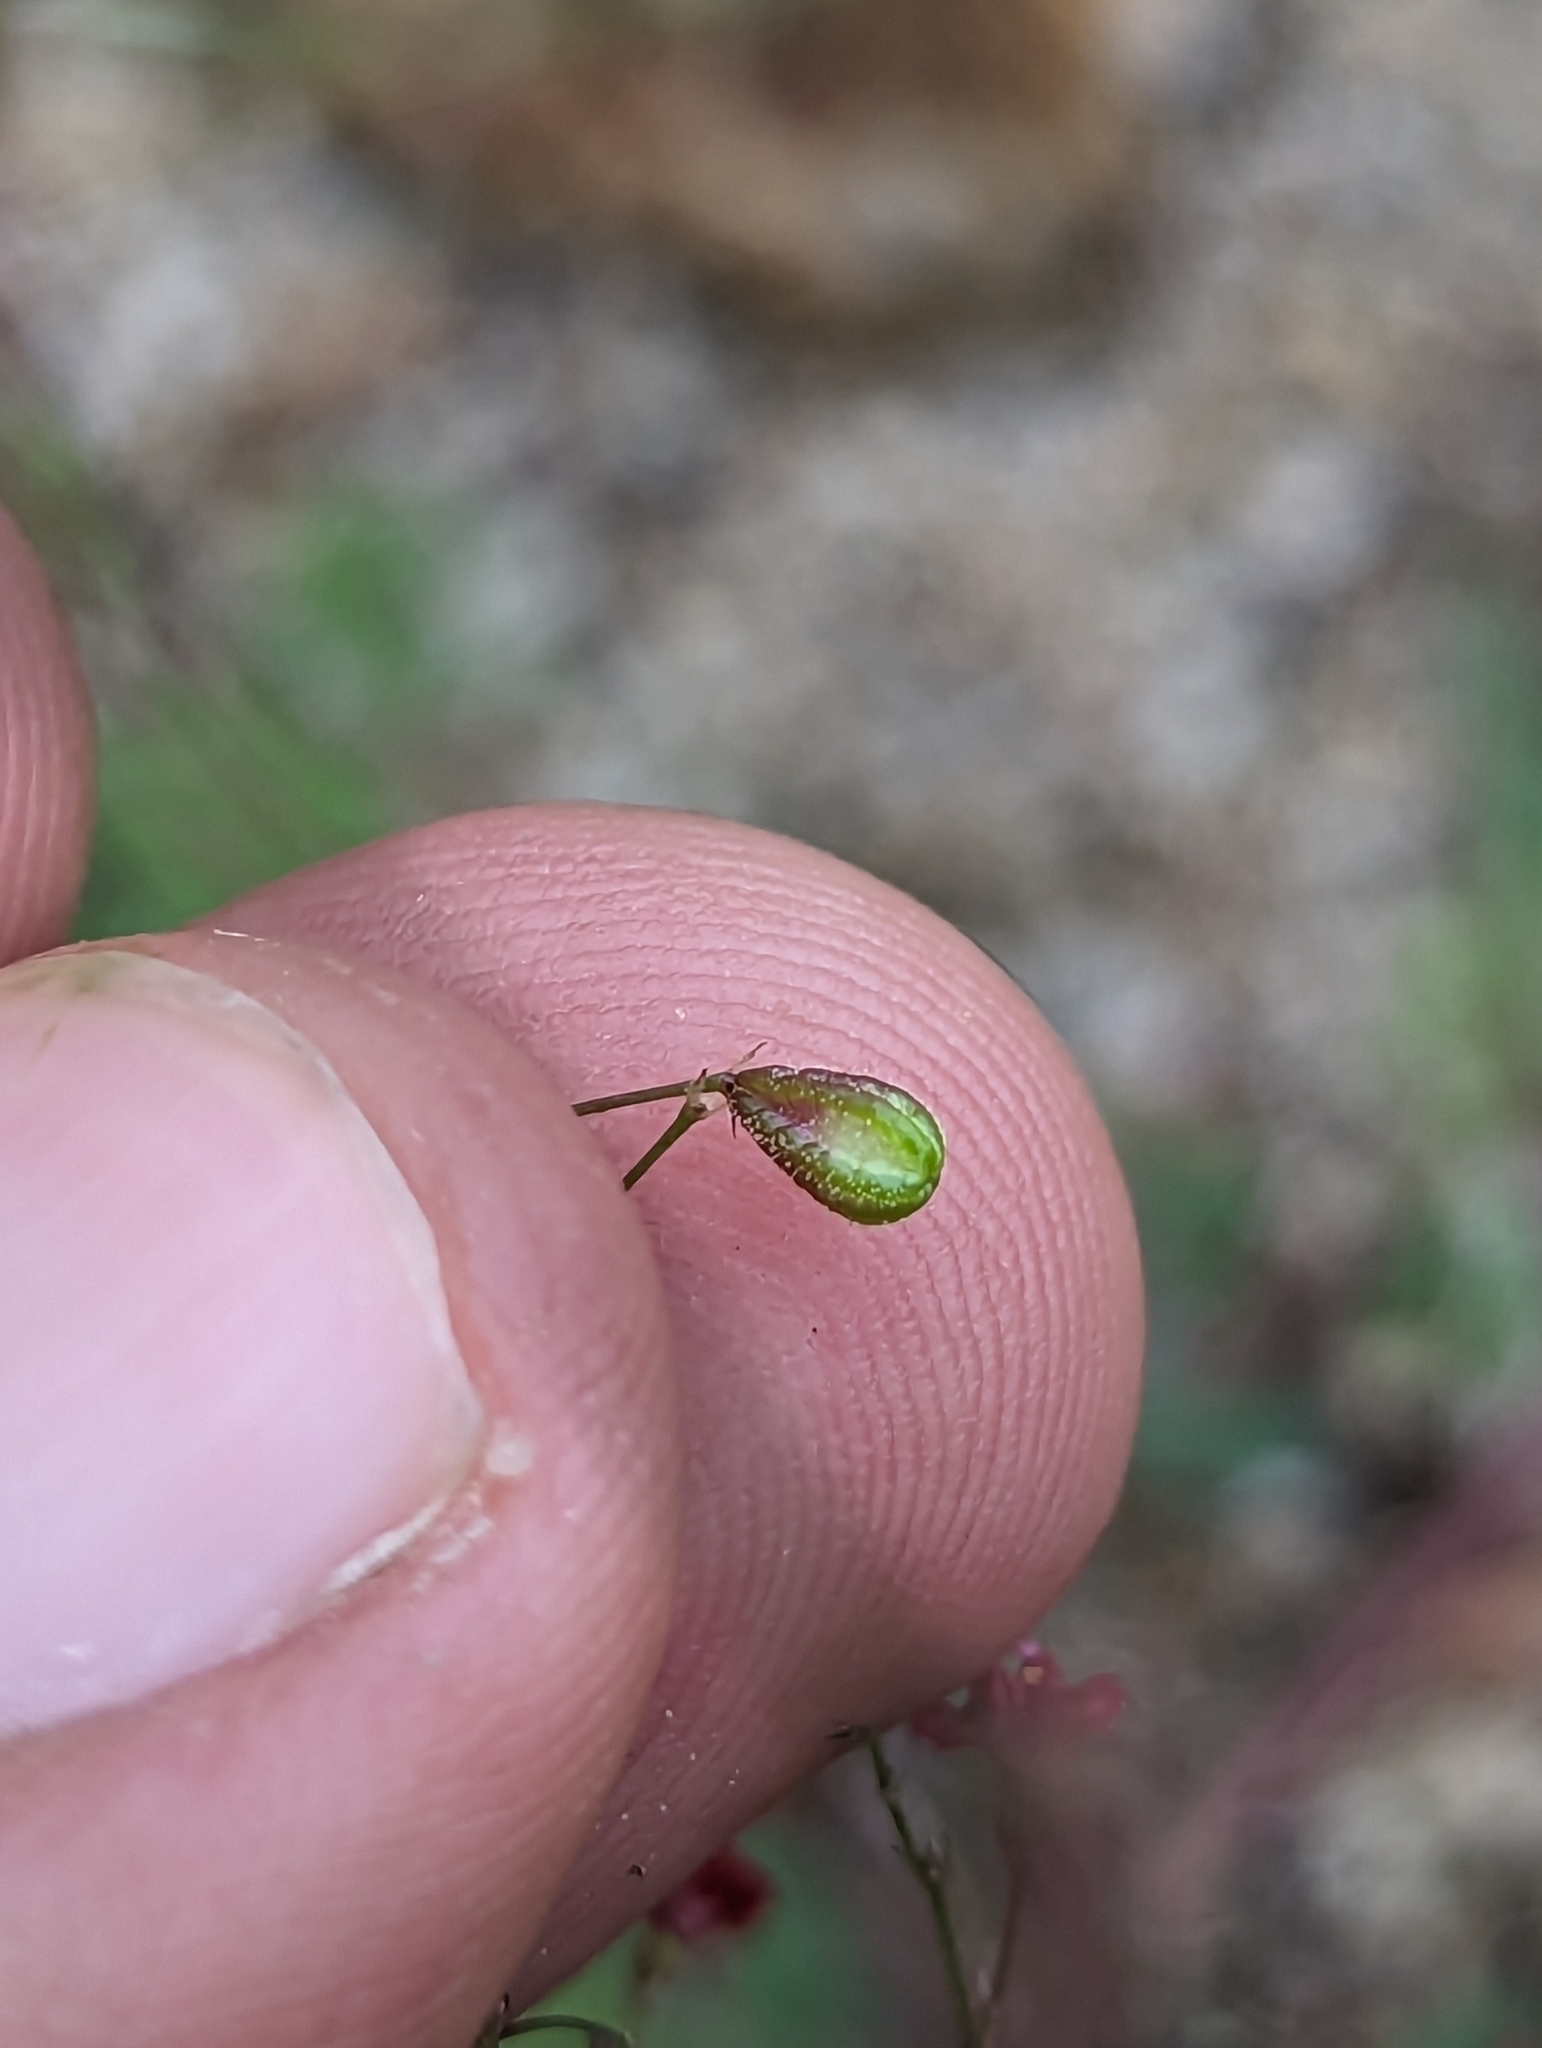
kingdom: Plantae
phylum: Tracheophyta
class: Magnoliopsida
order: Caryophyllales
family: Nyctaginaceae
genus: Boerhavia
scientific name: Boerhavia gracillima
